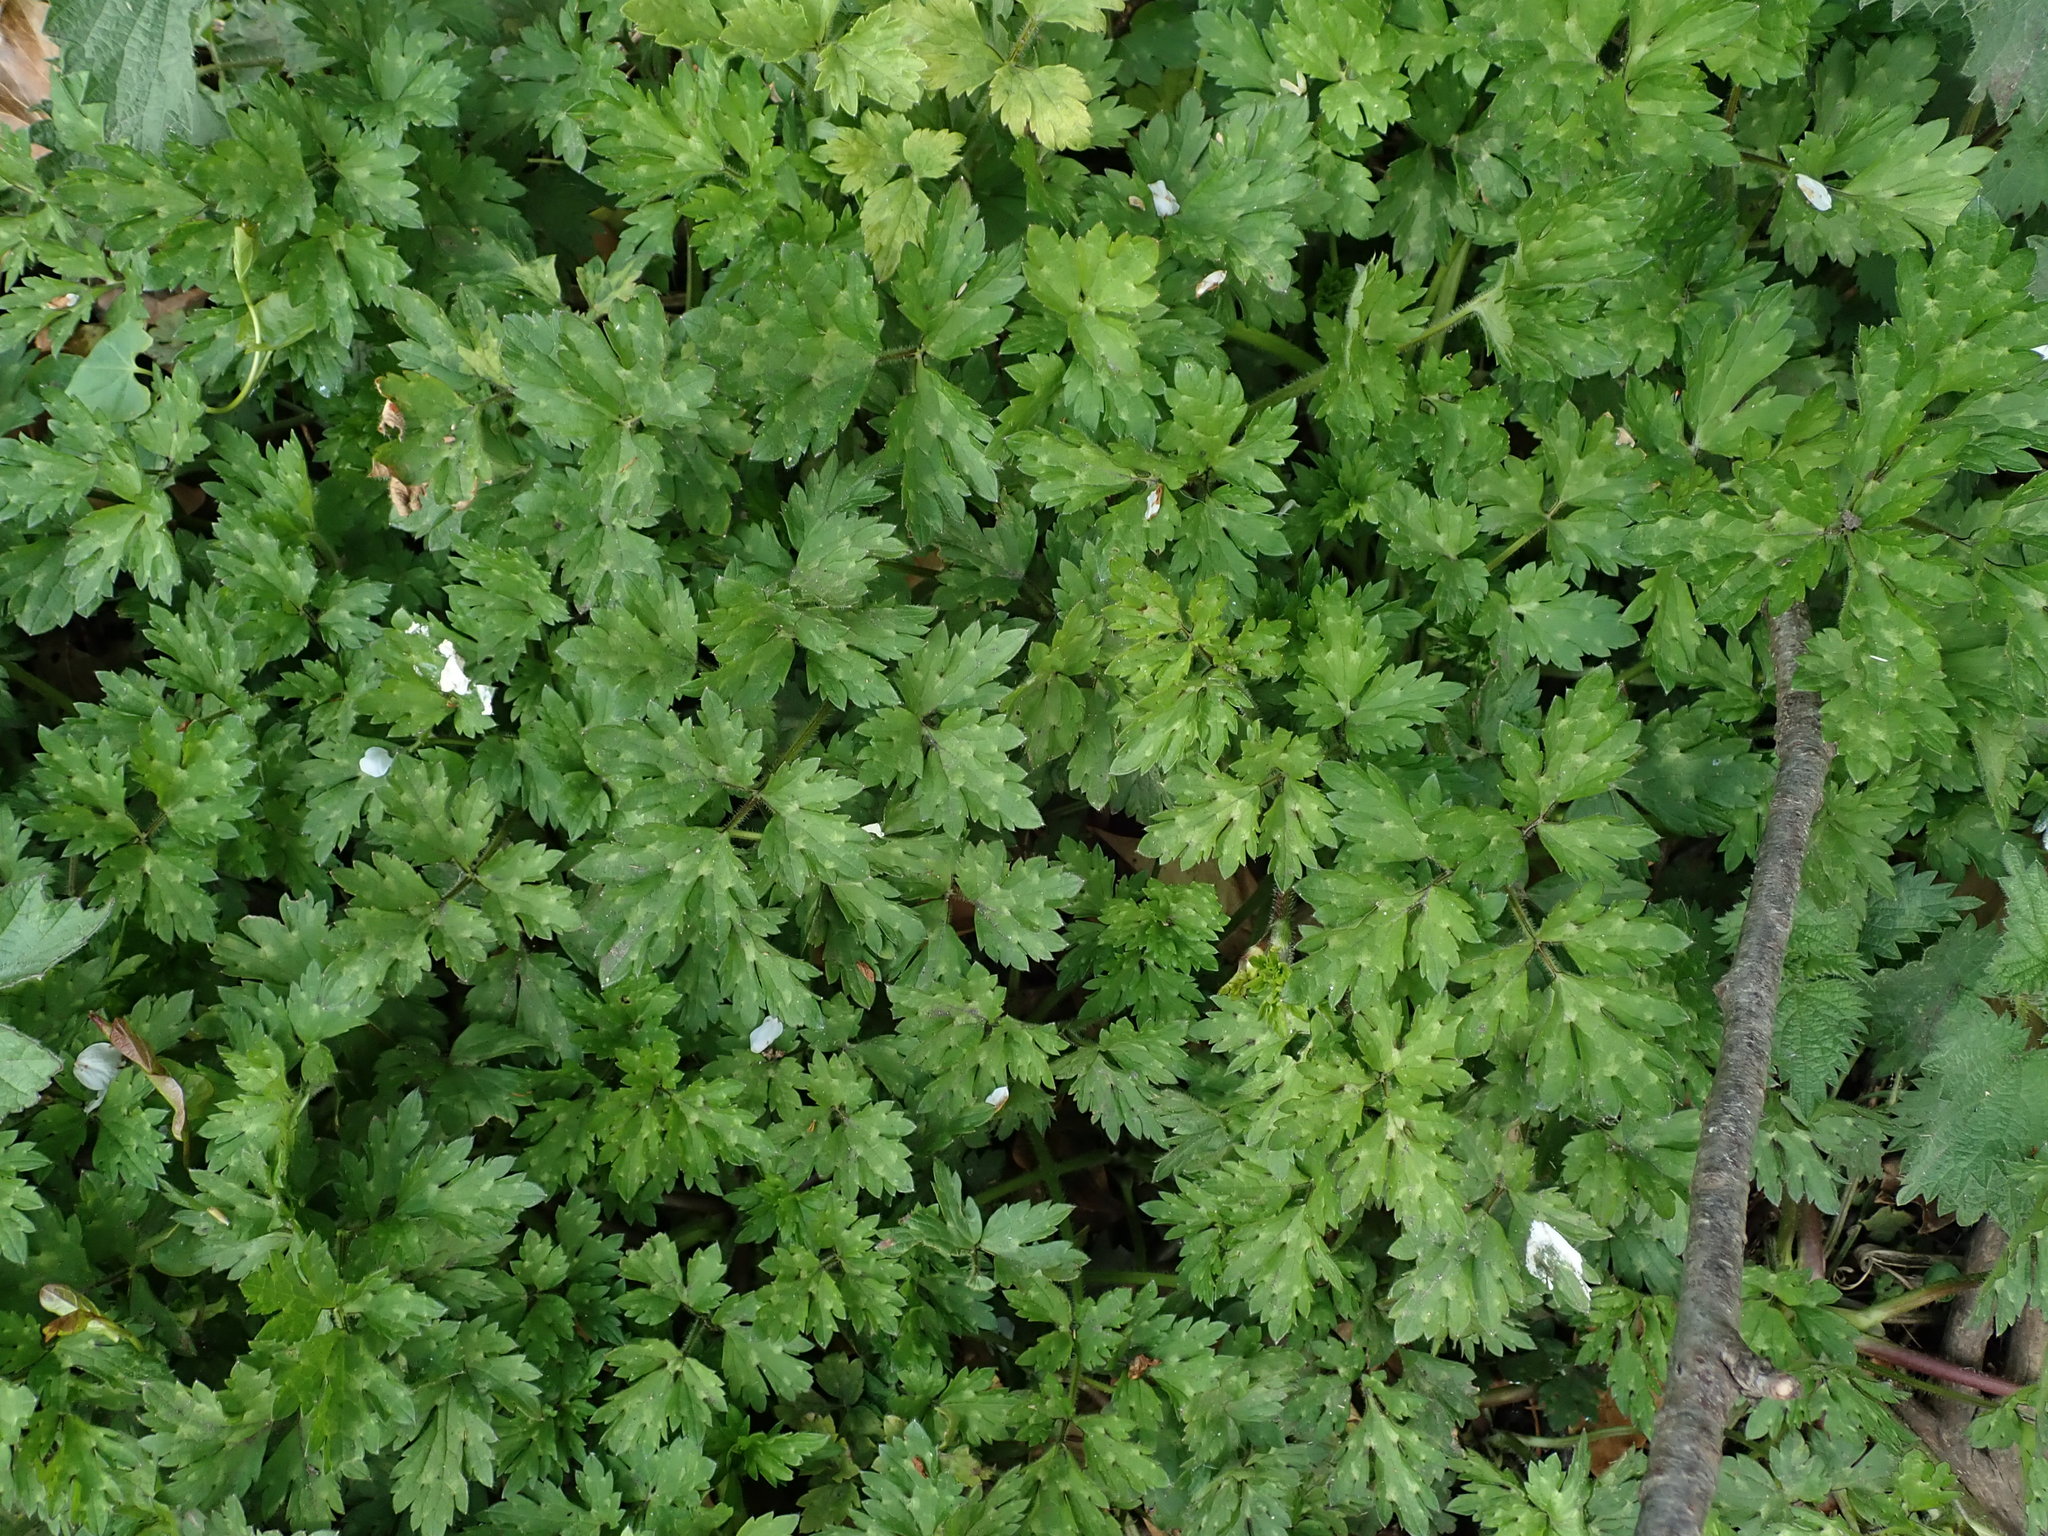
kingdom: Plantae
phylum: Tracheophyta
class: Magnoliopsida
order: Ranunculales
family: Ranunculaceae
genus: Ranunculus
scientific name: Ranunculus repens
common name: Creeping buttercup
